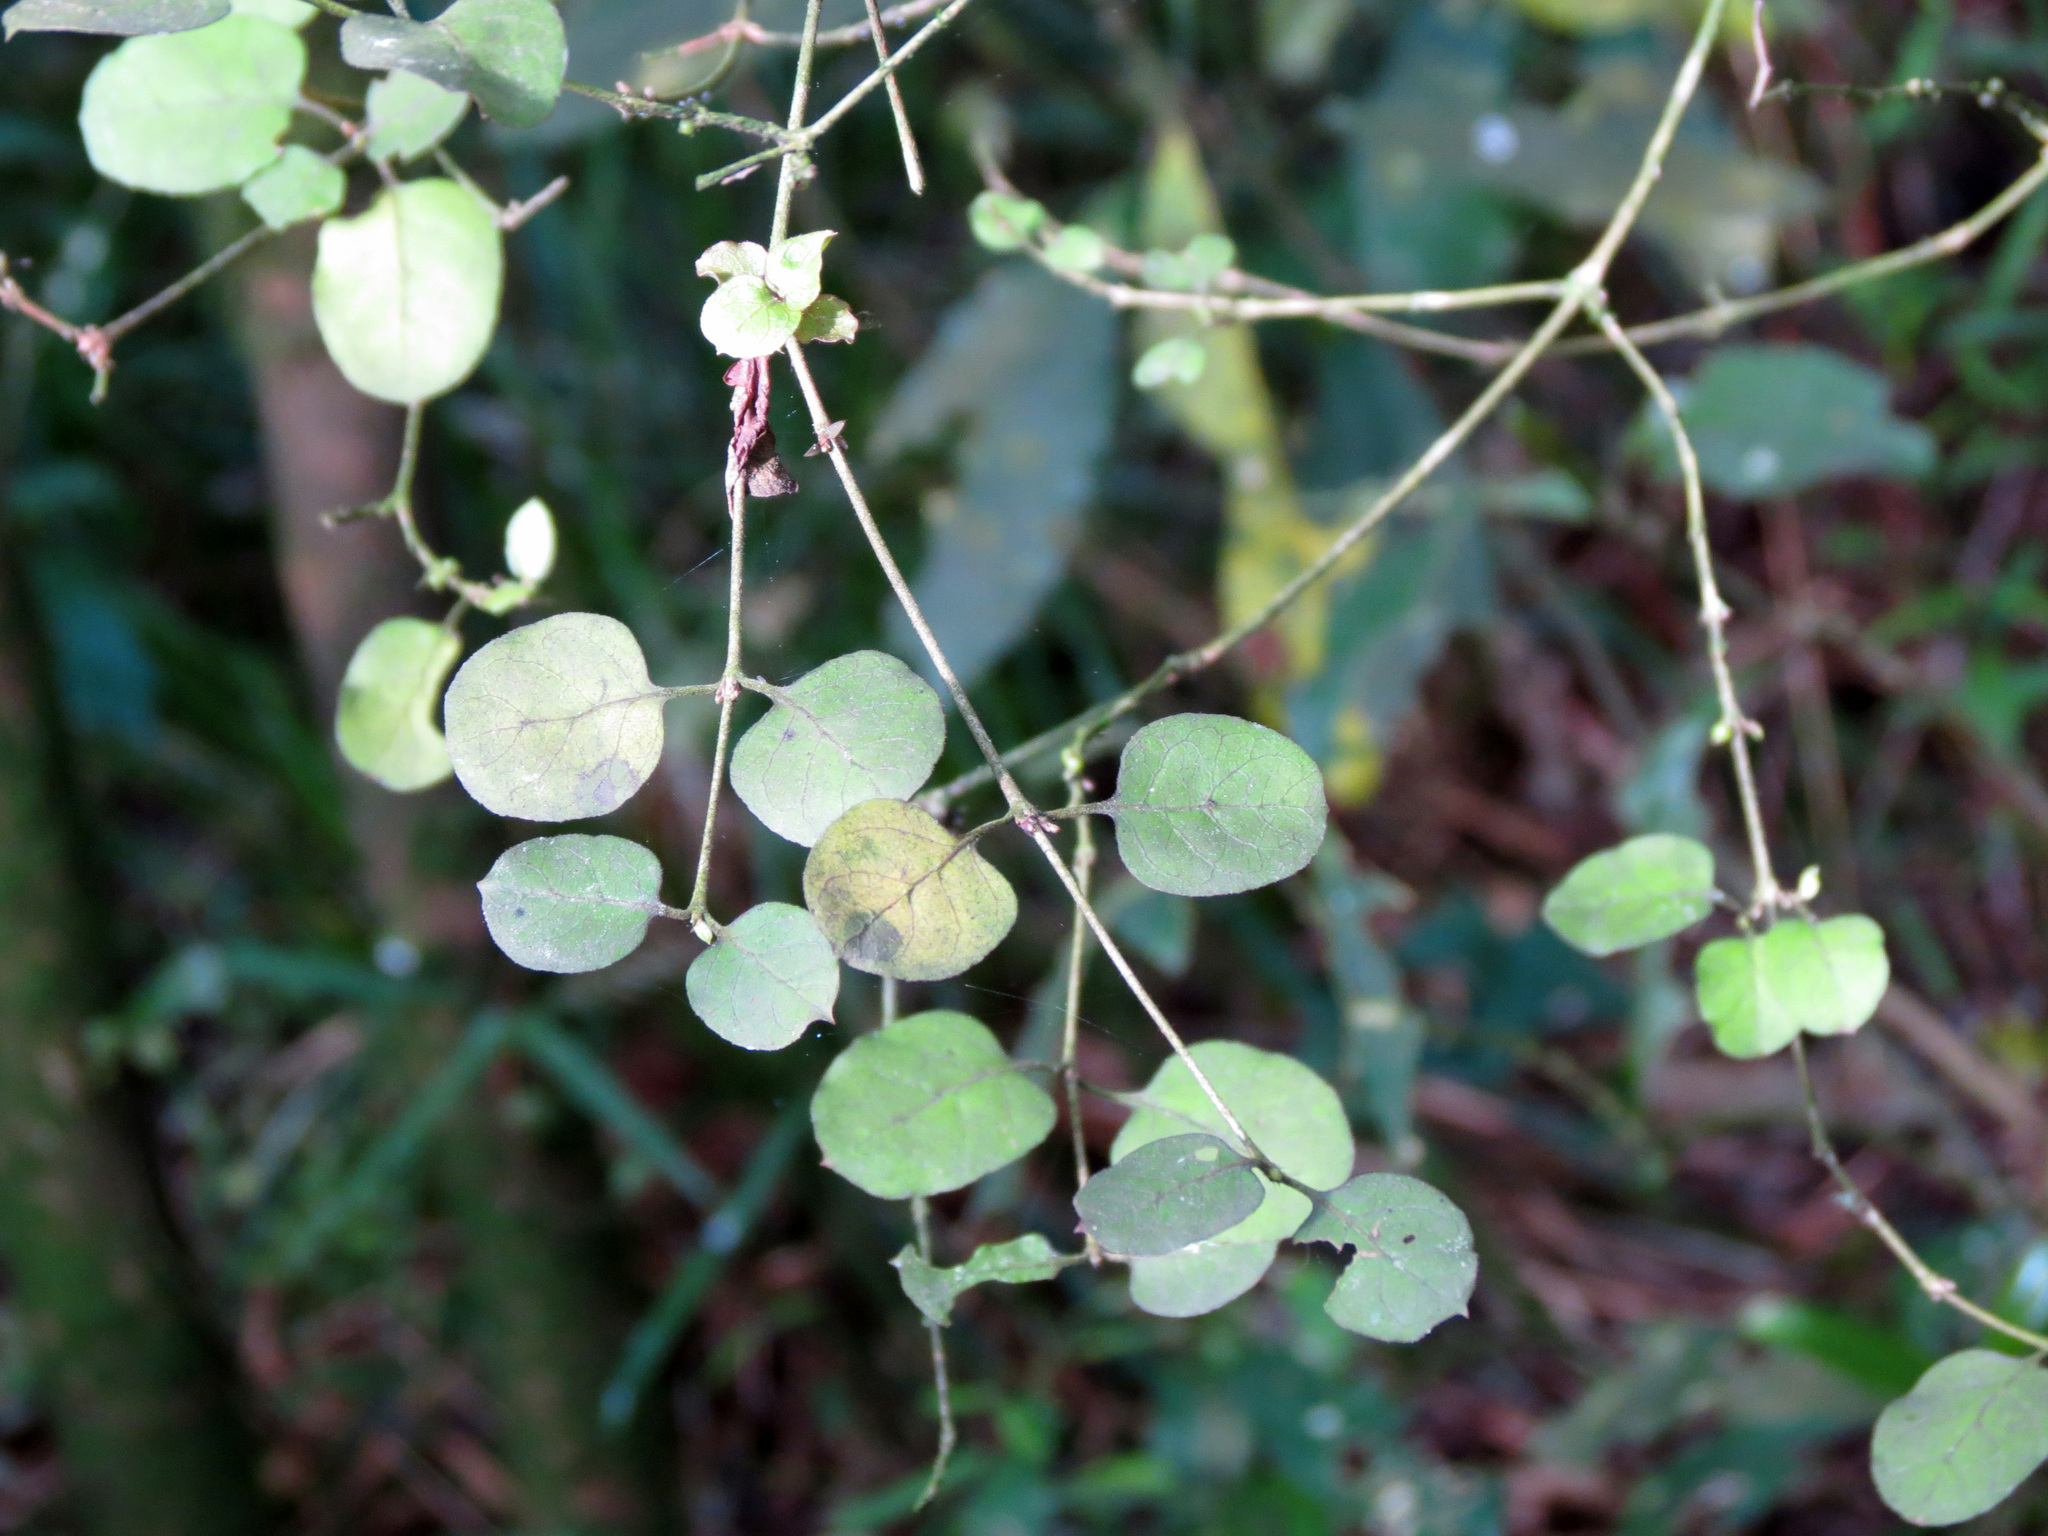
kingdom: Plantae
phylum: Tracheophyta
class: Magnoliopsida
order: Gentianales
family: Rubiaceae
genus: Coprosma
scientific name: Coprosma rotundifolia
